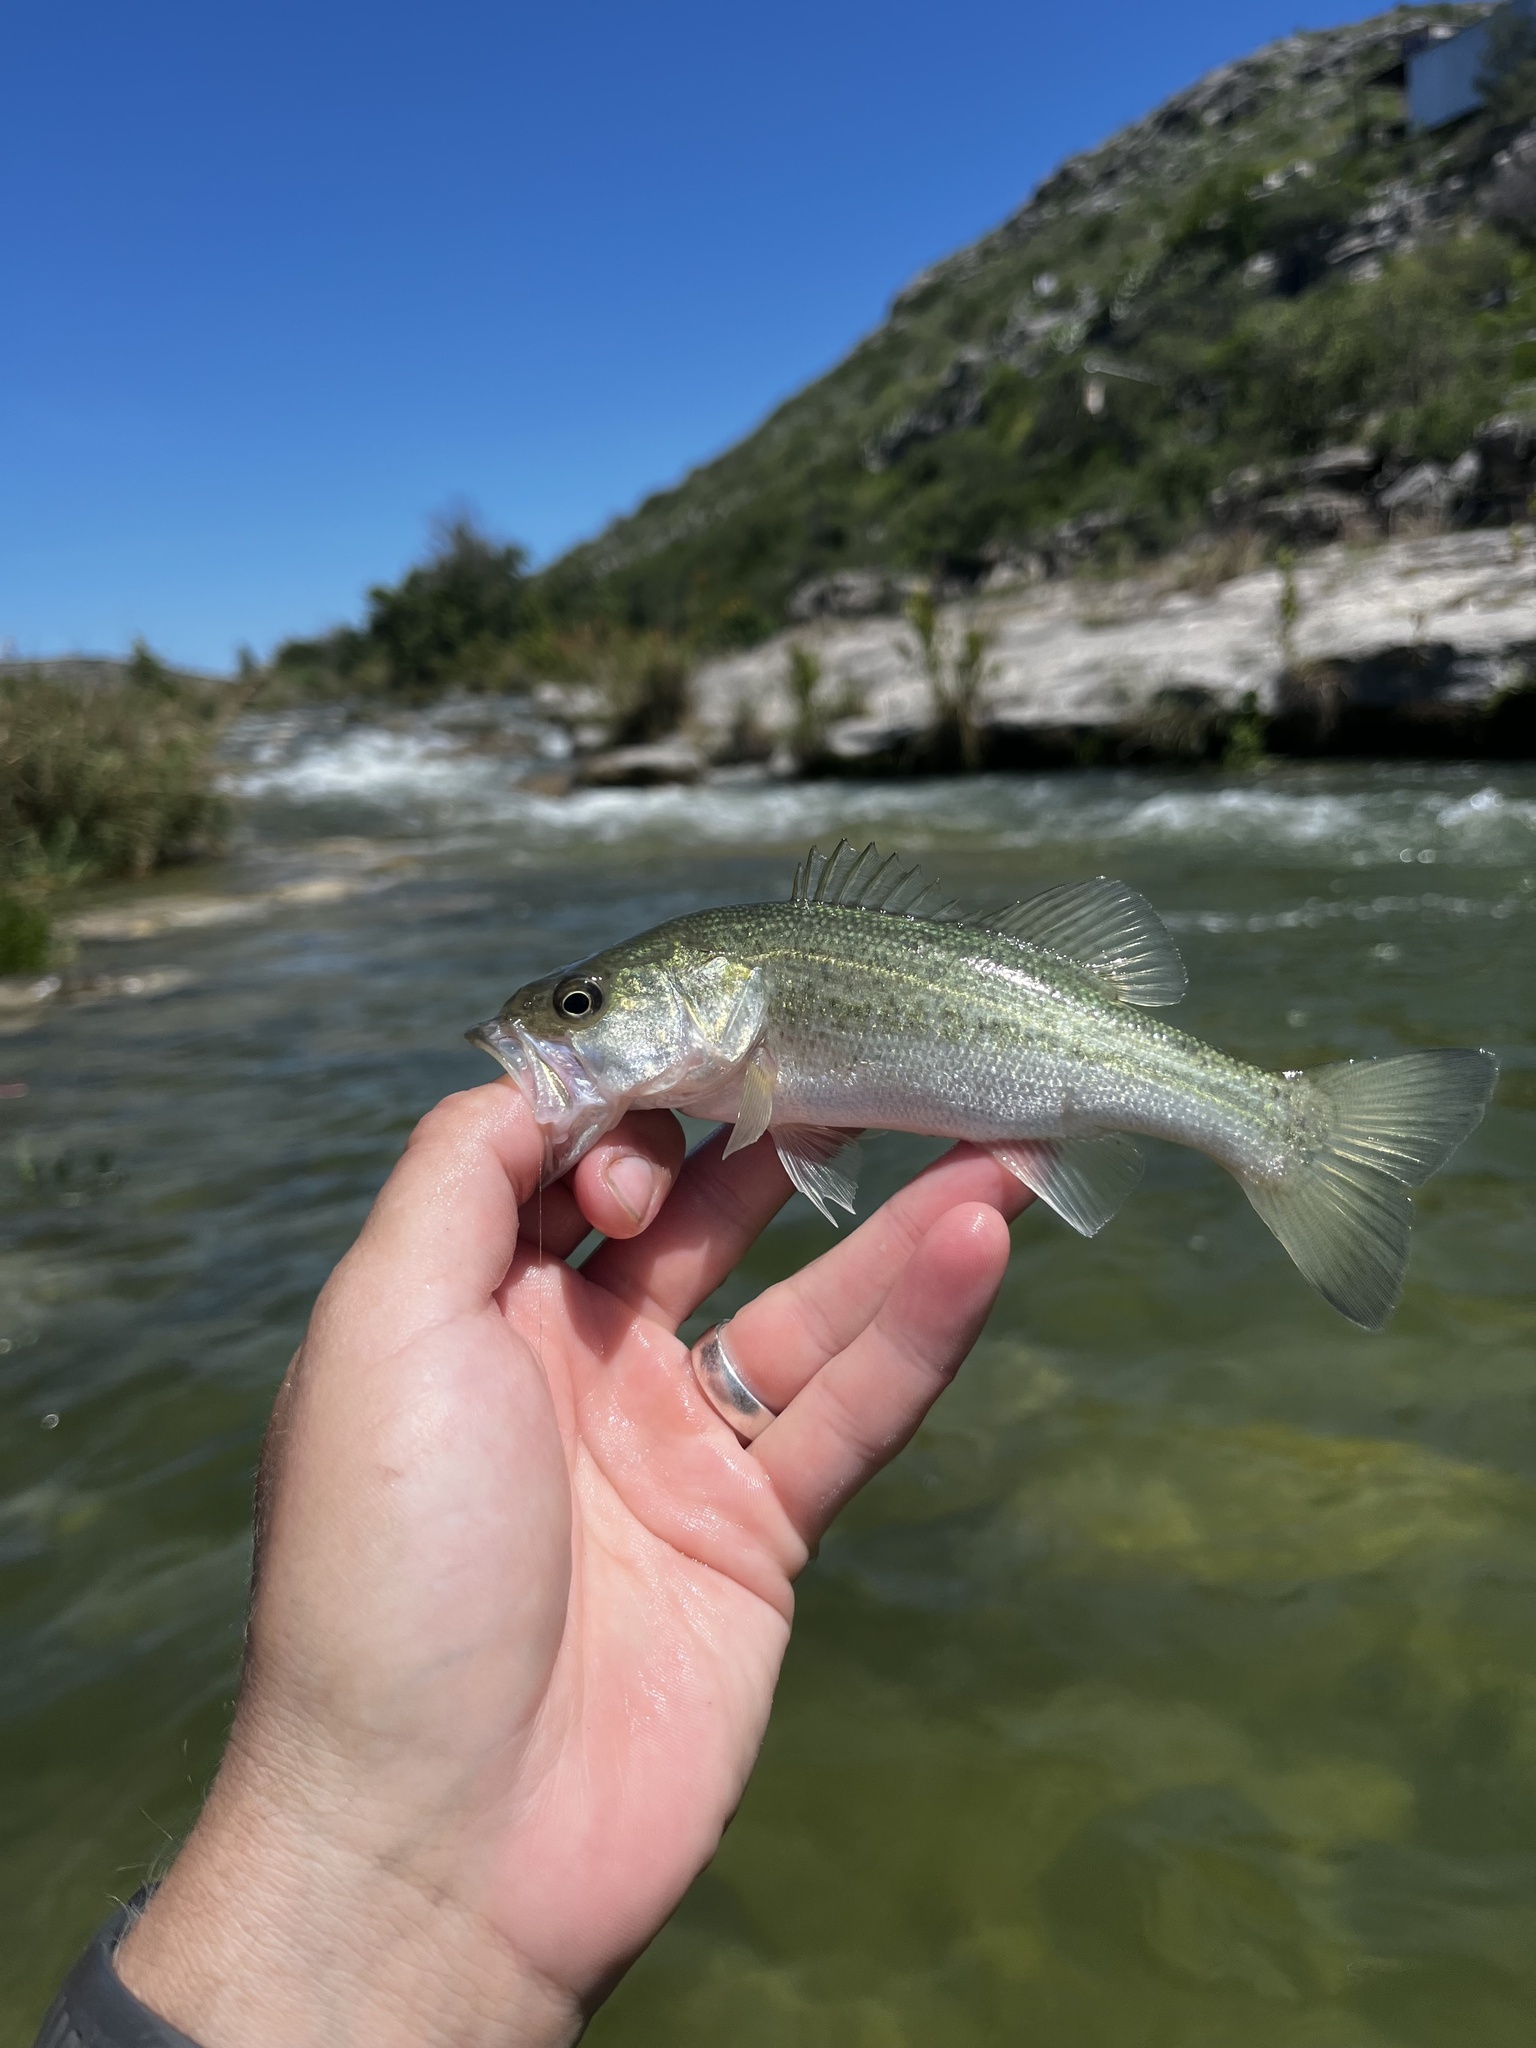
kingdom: Animalia
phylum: Chordata
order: Perciformes
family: Centrarchidae
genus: Micropterus
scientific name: Micropterus
